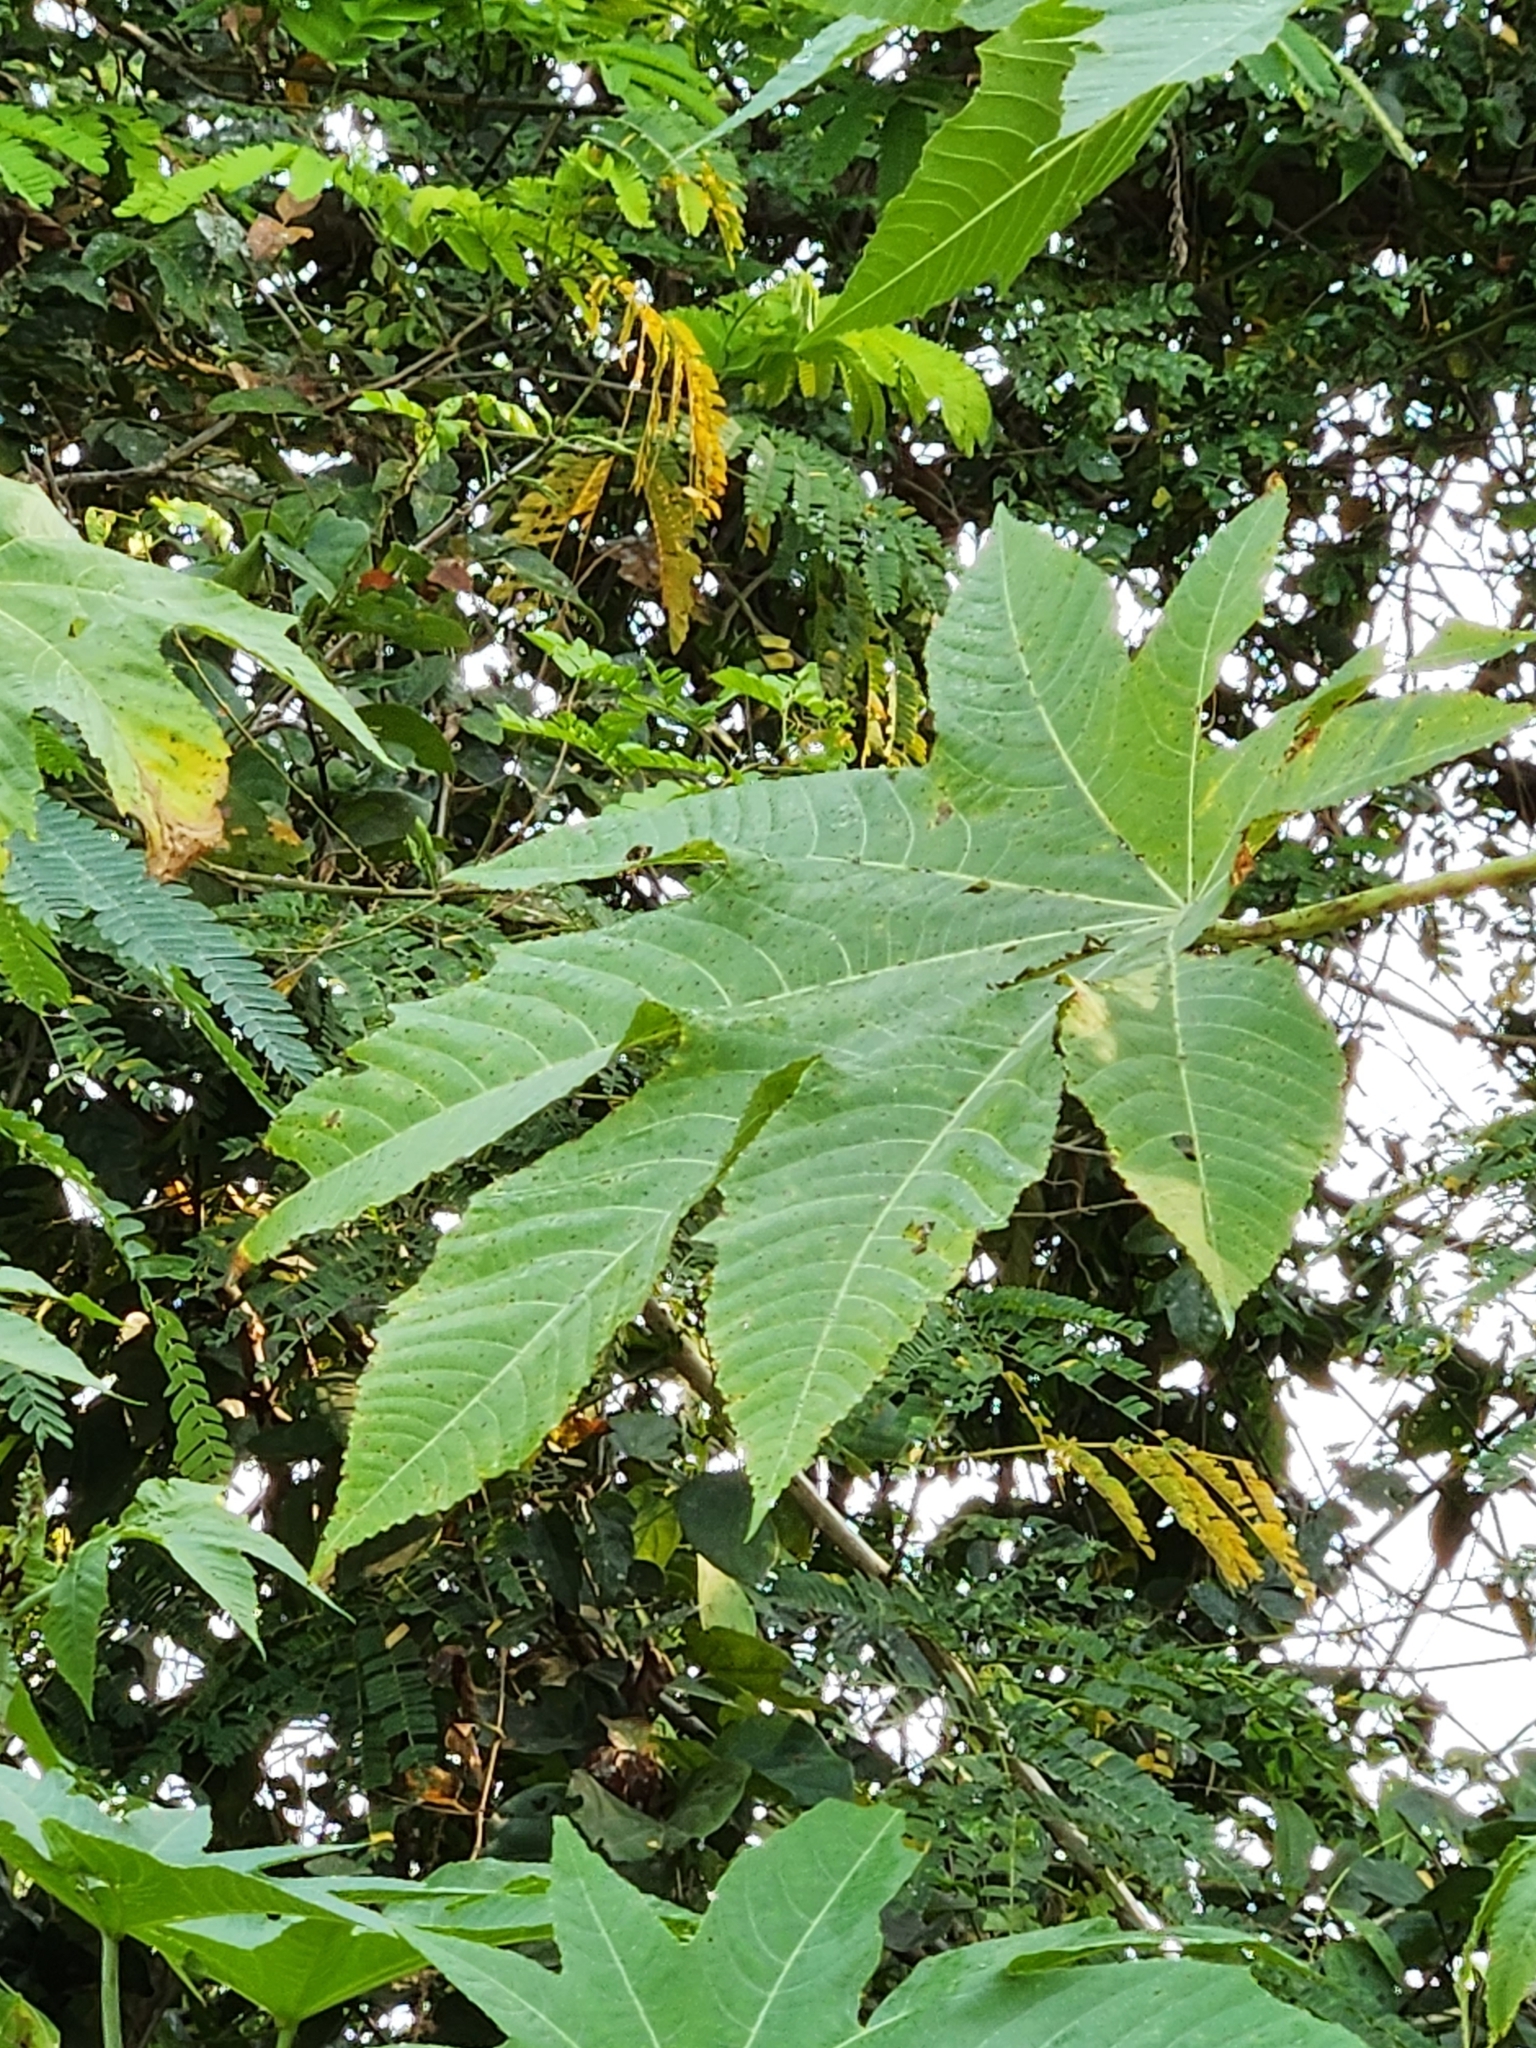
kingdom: Plantae
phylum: Tracheophyta
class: Magnoliopsida
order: Malpighiales
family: Euphorbiaceae
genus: Ricinus
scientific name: Ricinus communis
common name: Castor-oil-plant
